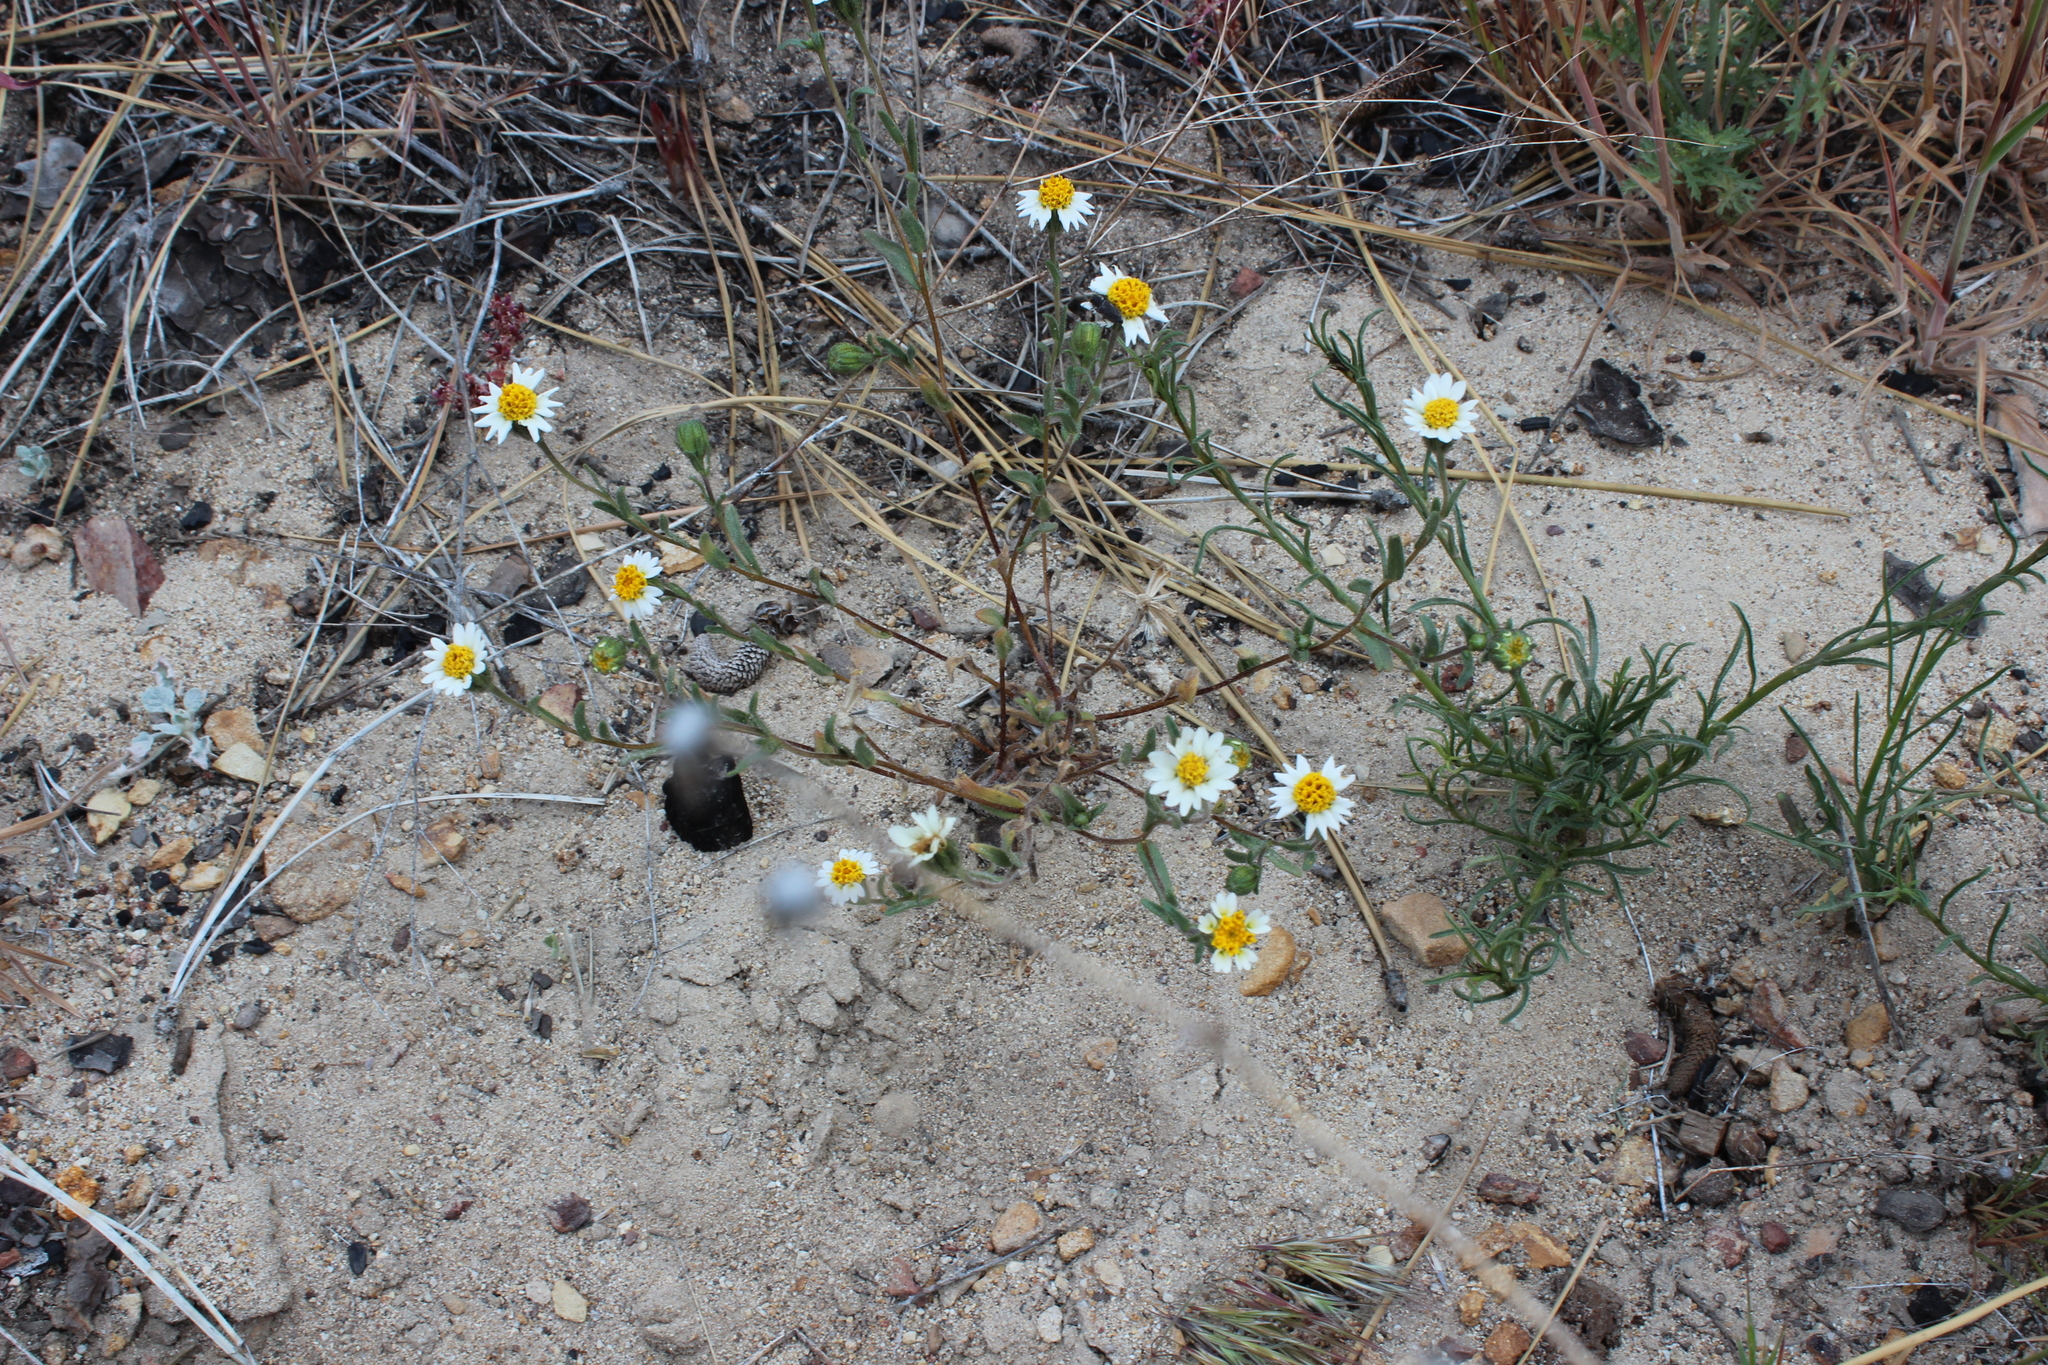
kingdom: Plantae
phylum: Tracheophyta
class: Magnoliopsida
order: Asterales
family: Asteraceae
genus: Layia
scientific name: Layia glandulosa
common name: White layia
